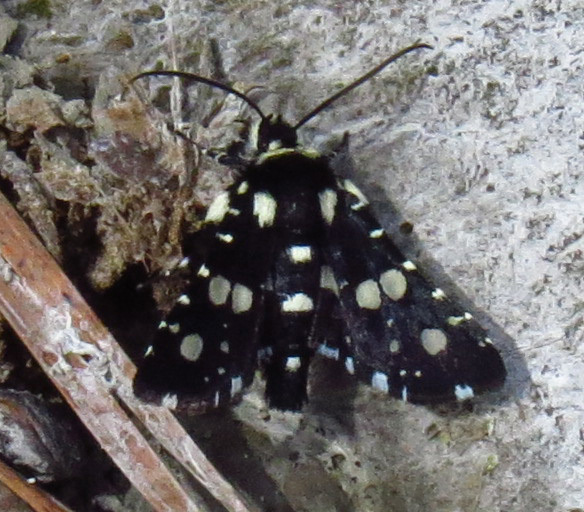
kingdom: Animalia
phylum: Arthropoda
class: Insecta
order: Lepidoptera
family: Thyrididae
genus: Pseudothyris
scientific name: Pseudothyris sepulchralis
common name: Mournful thyris moth
